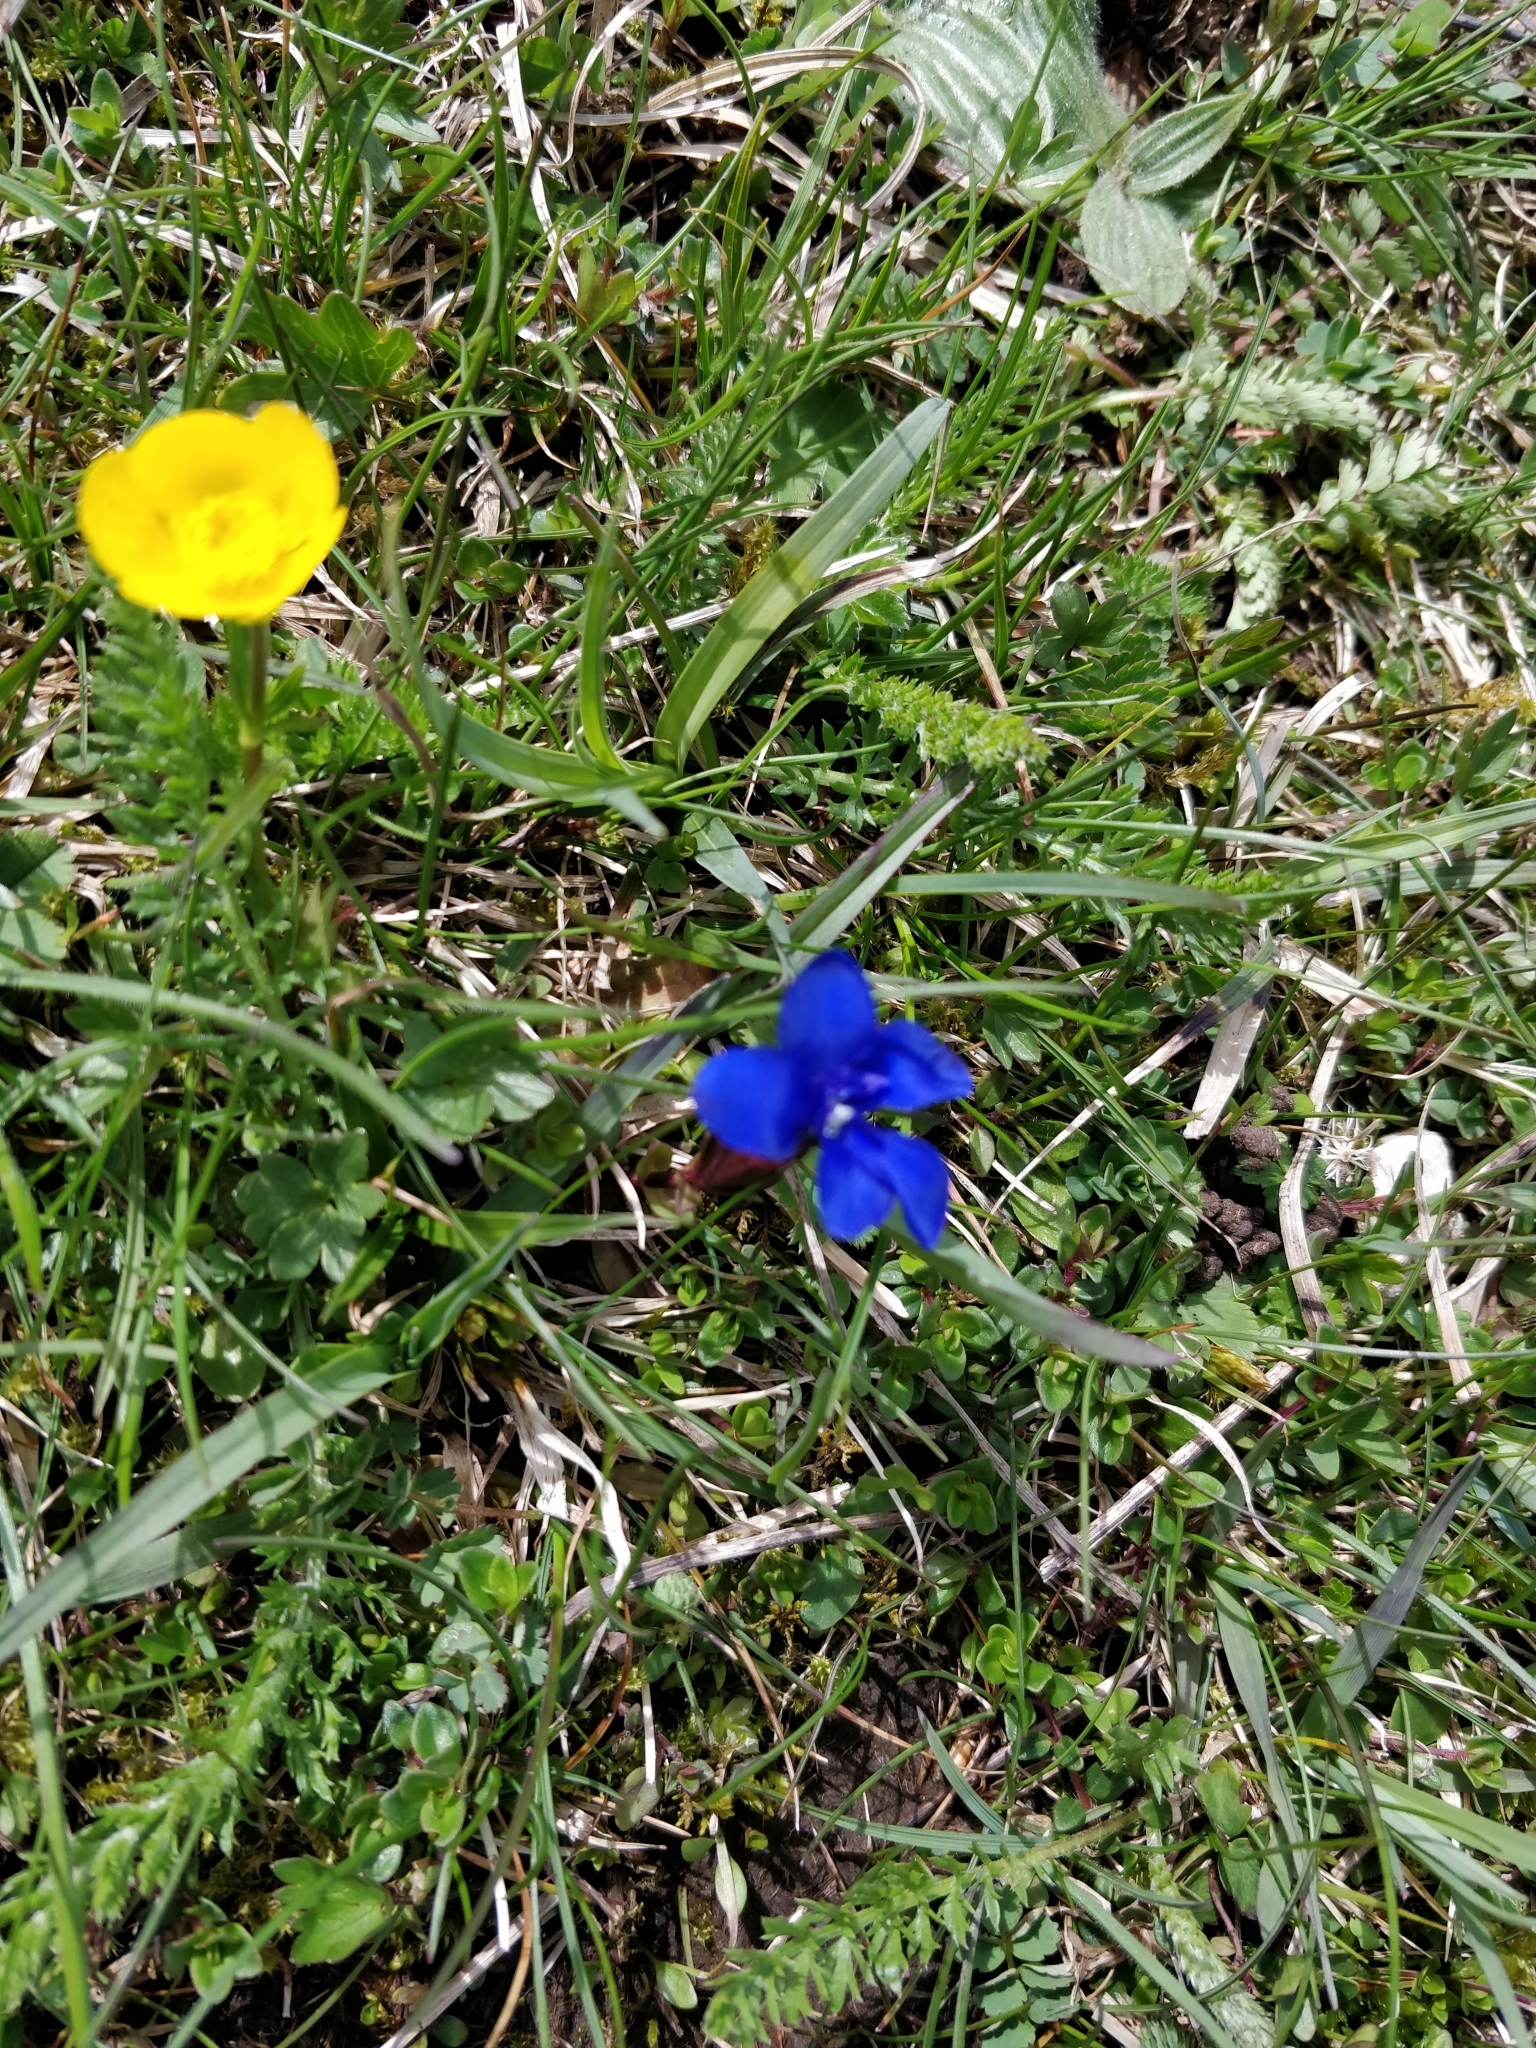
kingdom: Plantae
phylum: Tracheophyta
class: Magnoliopsida
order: Gentianales
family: Gentianaceae
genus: Gentiana
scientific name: Gentiana verna
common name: Spring gentian
